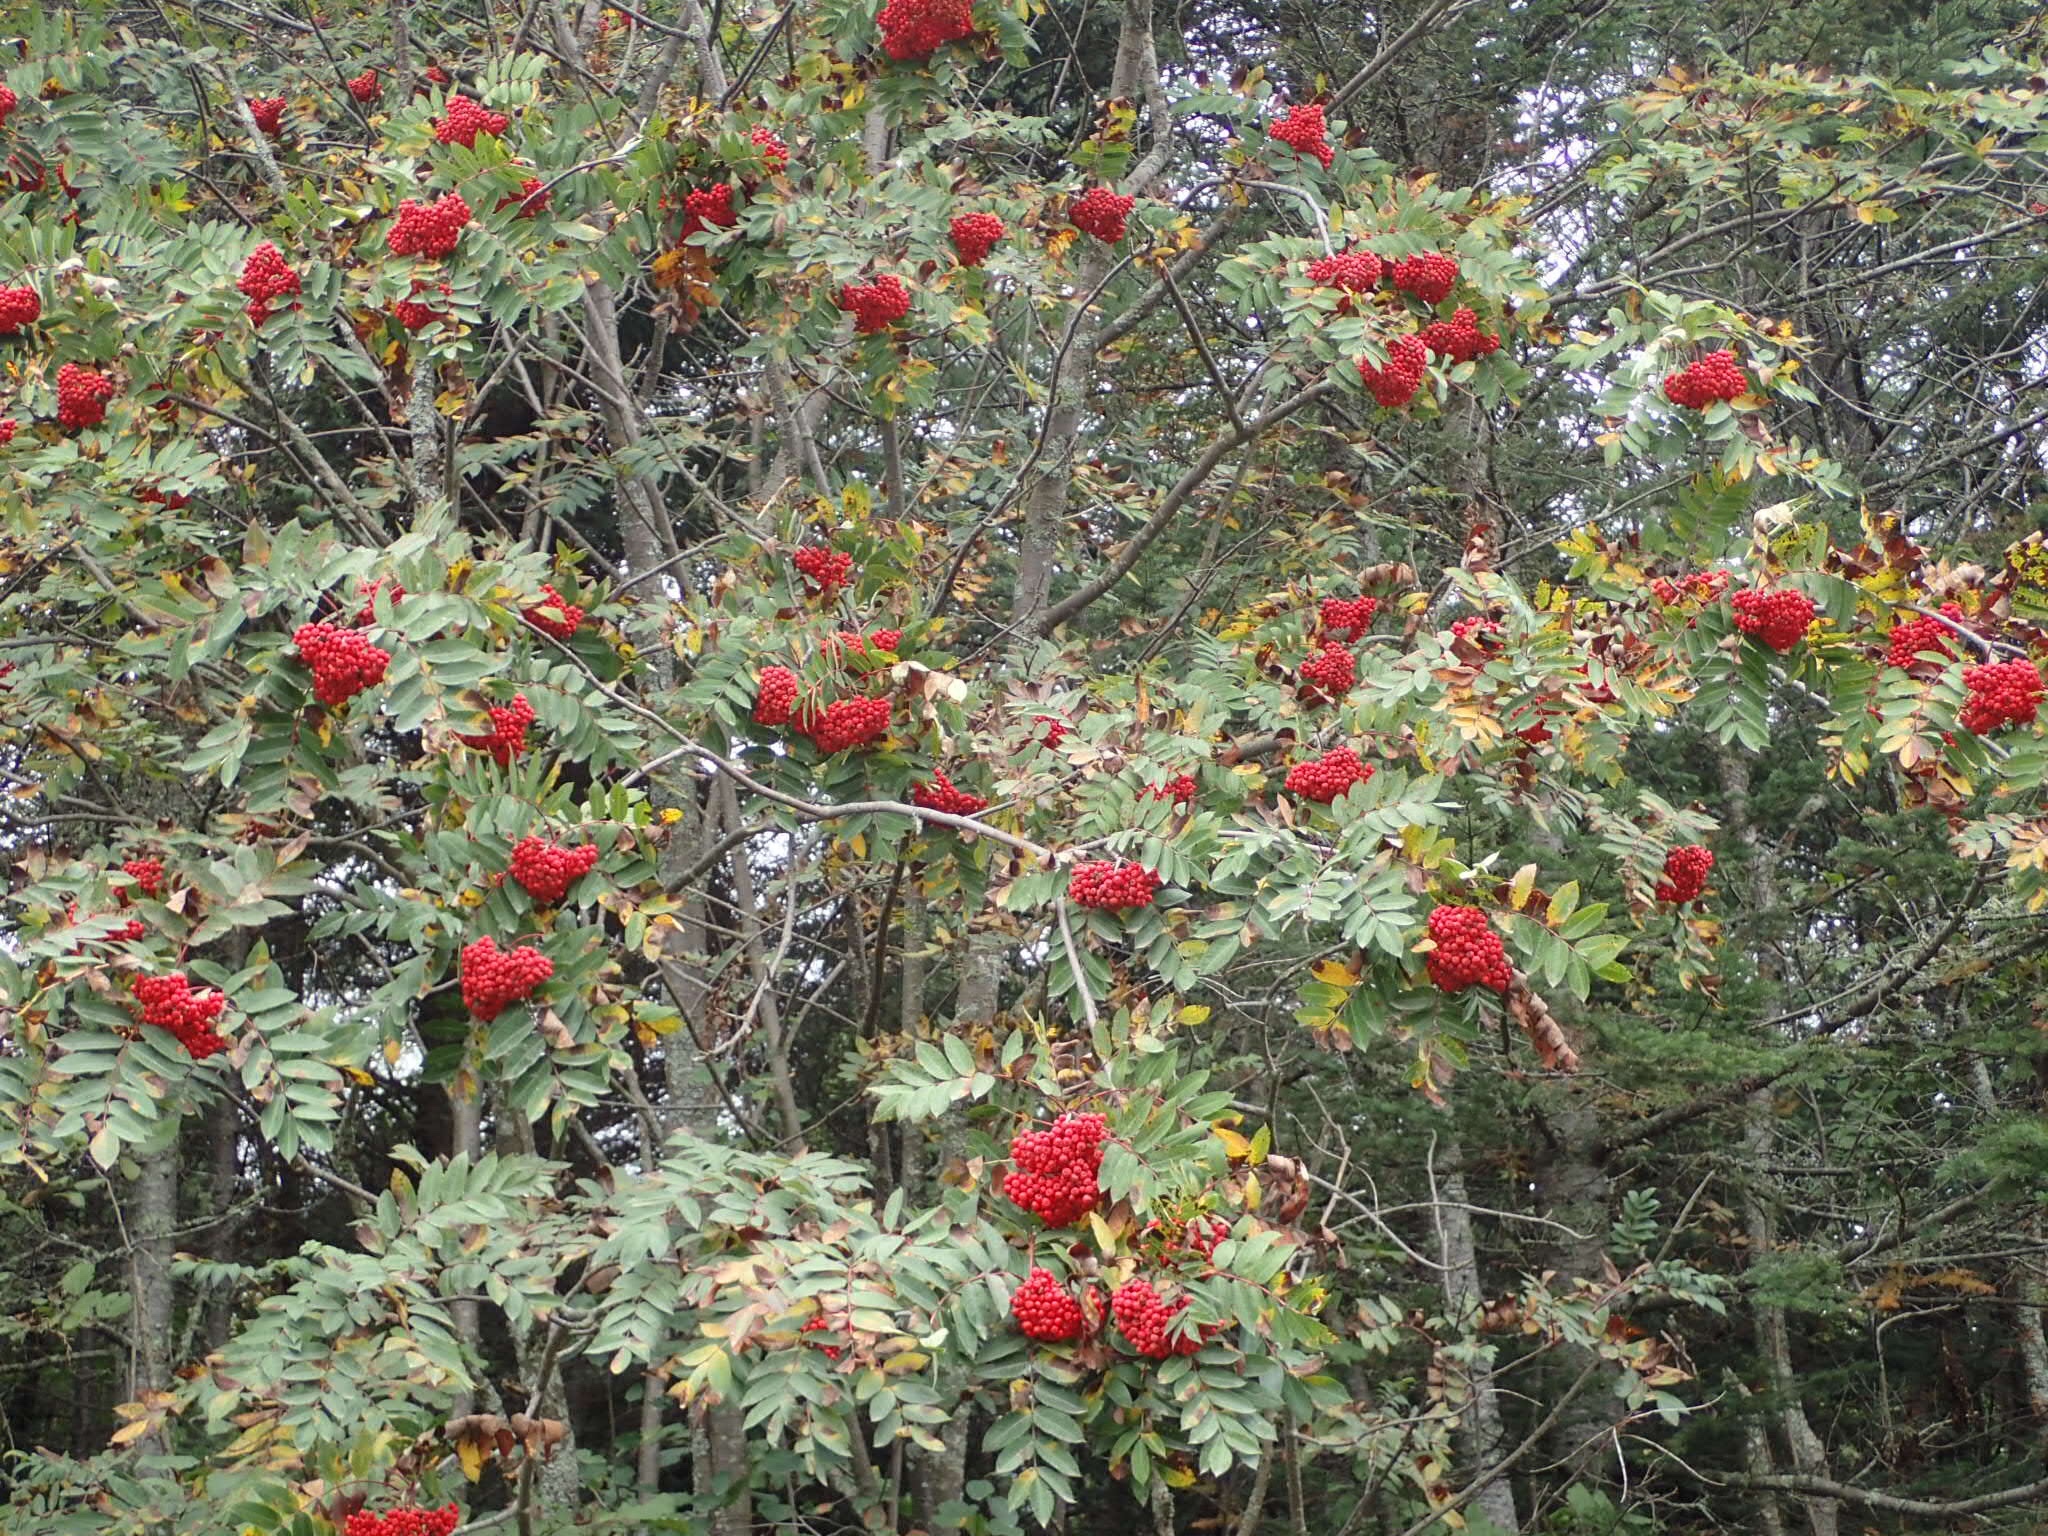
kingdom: Plantae
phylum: Tracheophyta
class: Magnoliopsida
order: Rosales
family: Rosaceae
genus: Sorbus
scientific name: Sorbus decora
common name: Northern mountain-ash
